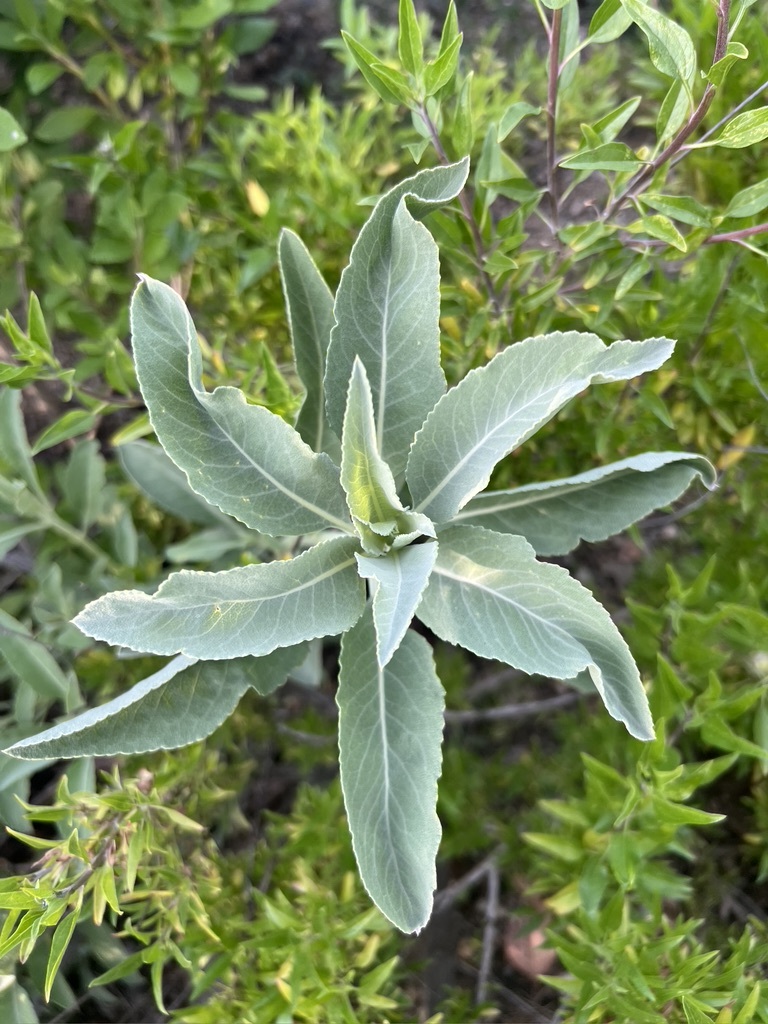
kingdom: Plantae
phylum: Tracheophyta
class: Magnoliopsida
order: Lamiales
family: Lamiaceae
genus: Salvia
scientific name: Salvia apiana
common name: White sage
